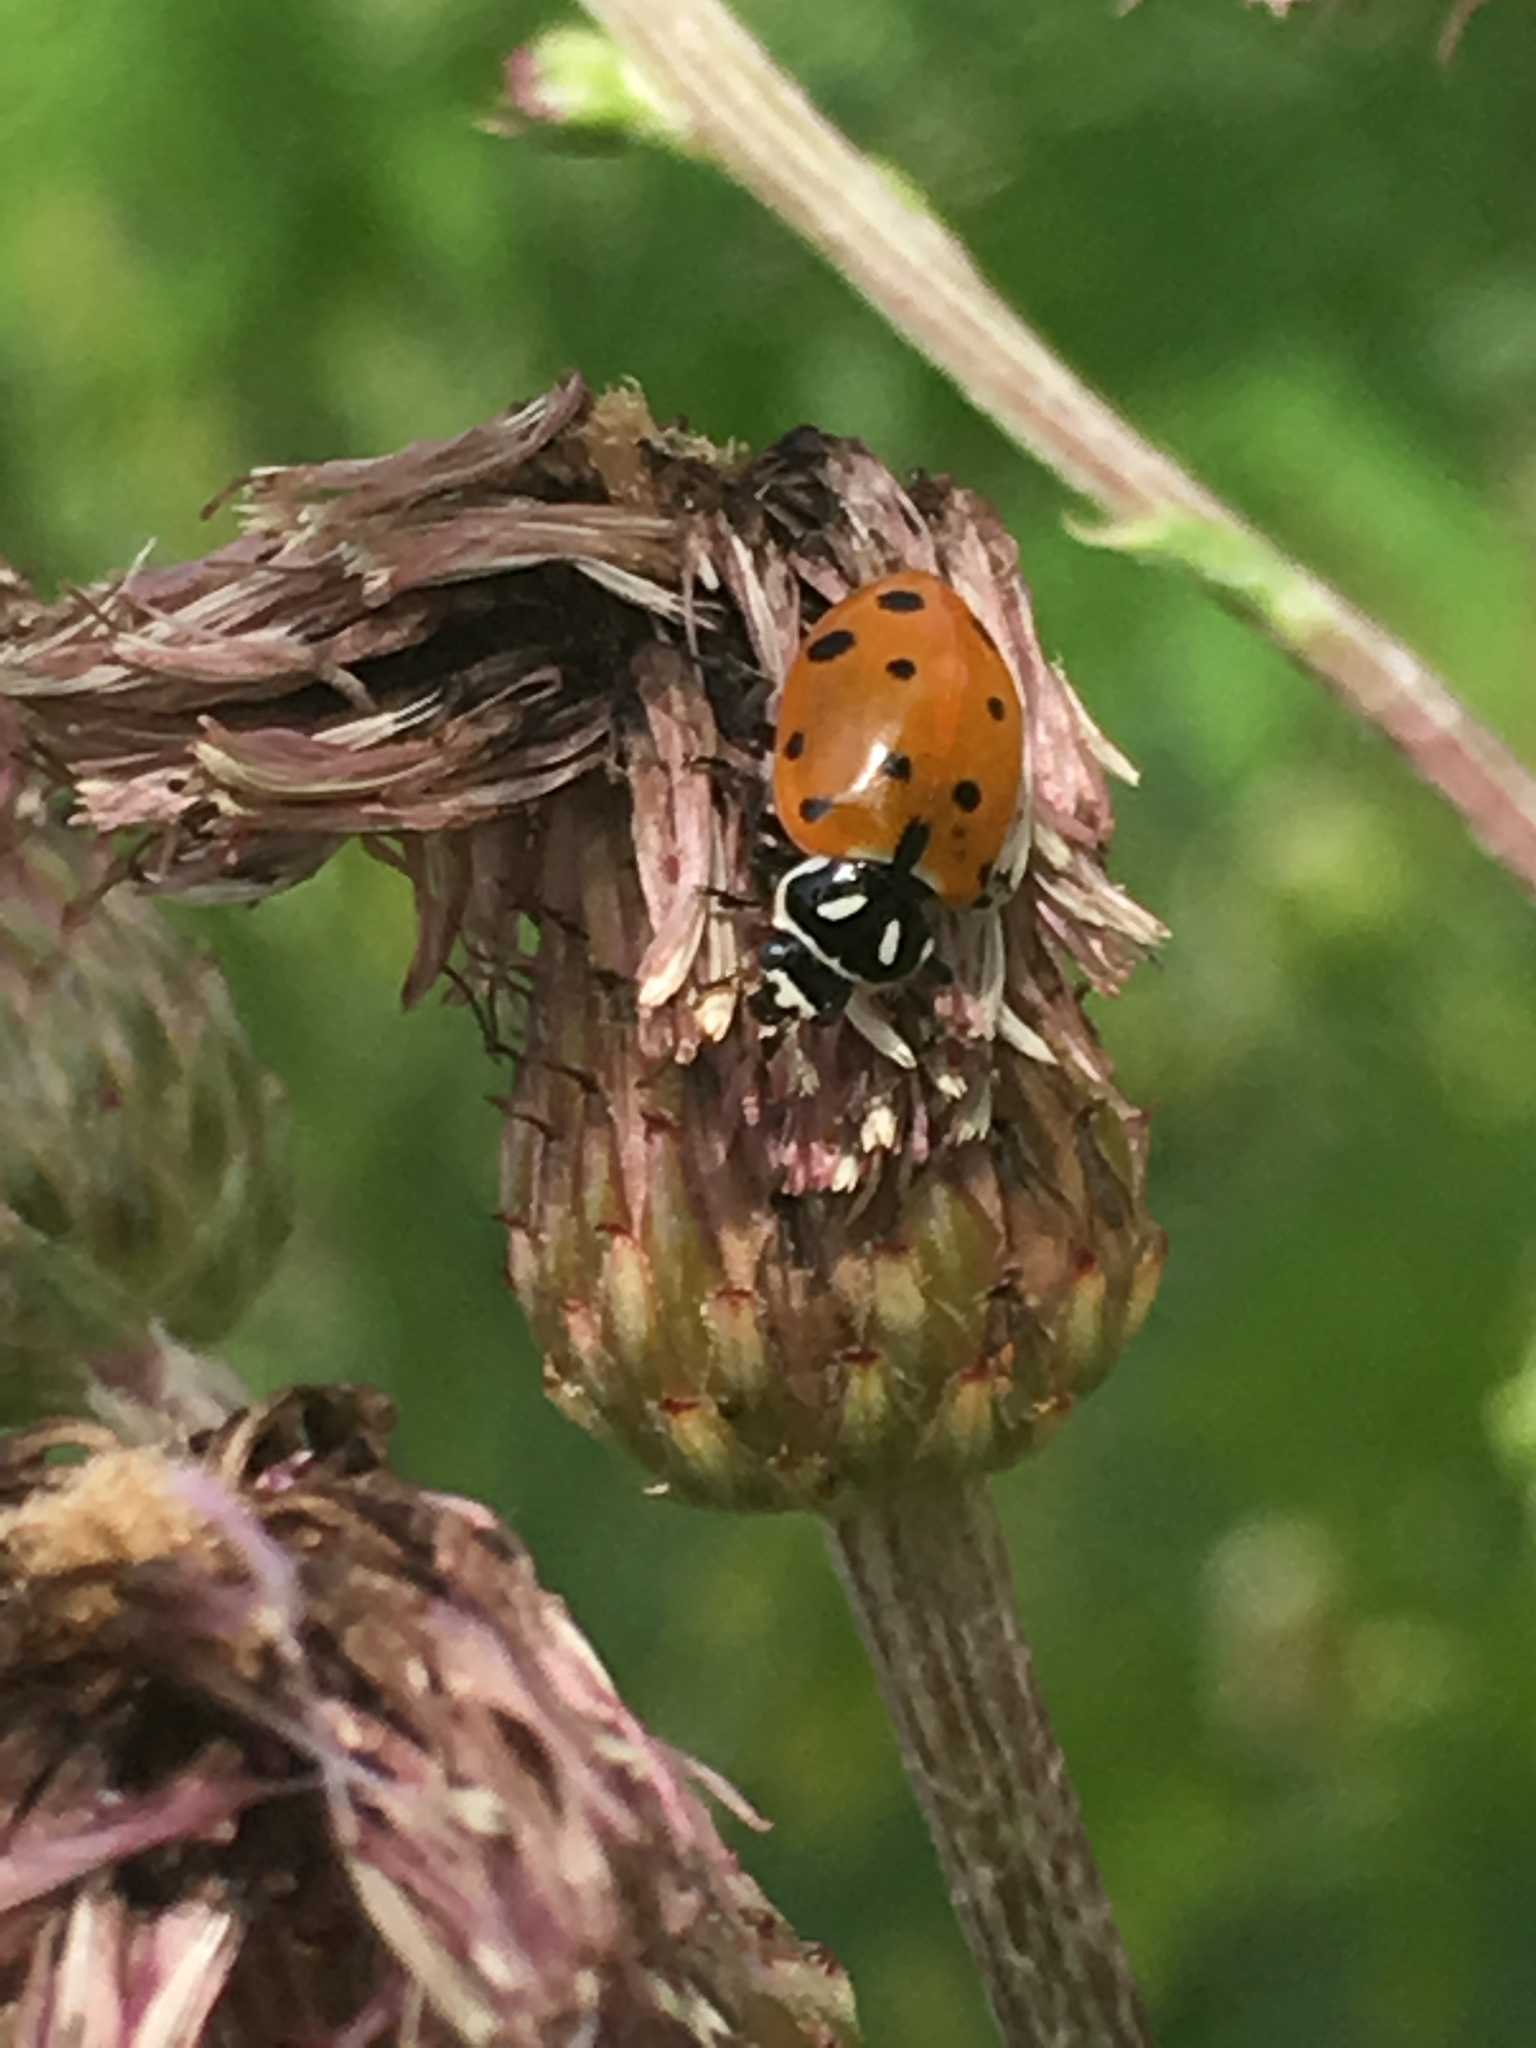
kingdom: Animalia
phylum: Arthropoda
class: Insecta
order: Coleoptera
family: Coccinellidae
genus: Hippodamia
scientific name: Hippodamia convergens
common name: Convergent lady beetle
